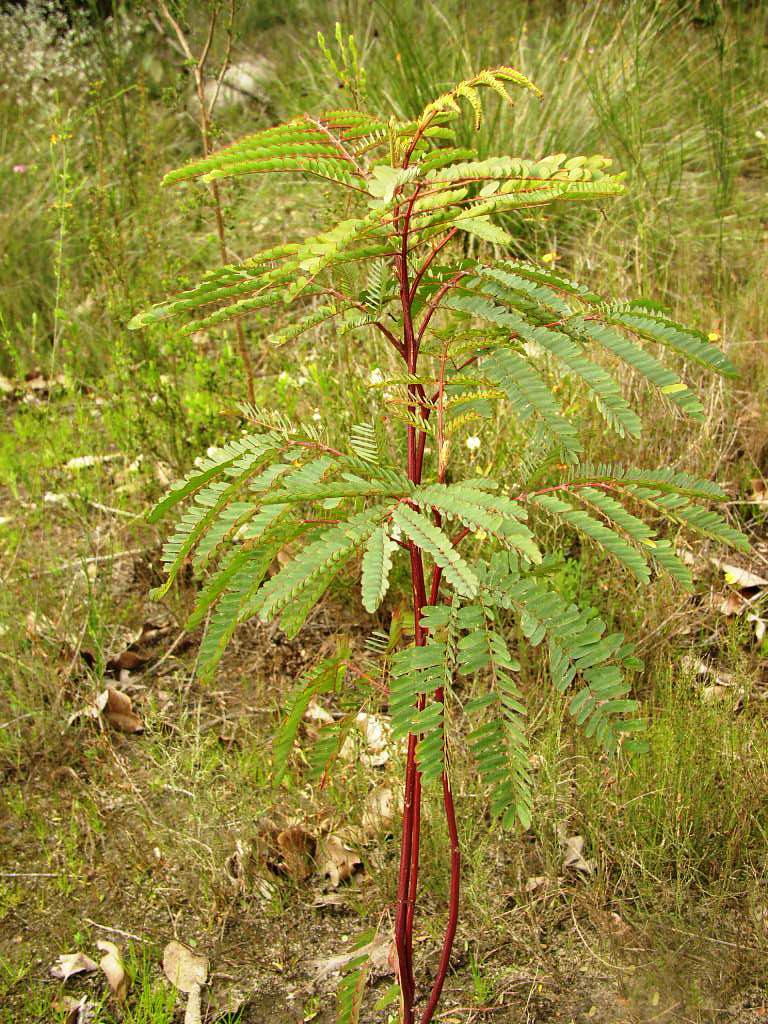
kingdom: Plantae
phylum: Tracheophyta
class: Magnoliopsida
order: Fabales
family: Fabaceae
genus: Paraserianthes
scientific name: Paraserianthes lophantha
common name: Plume albizia
